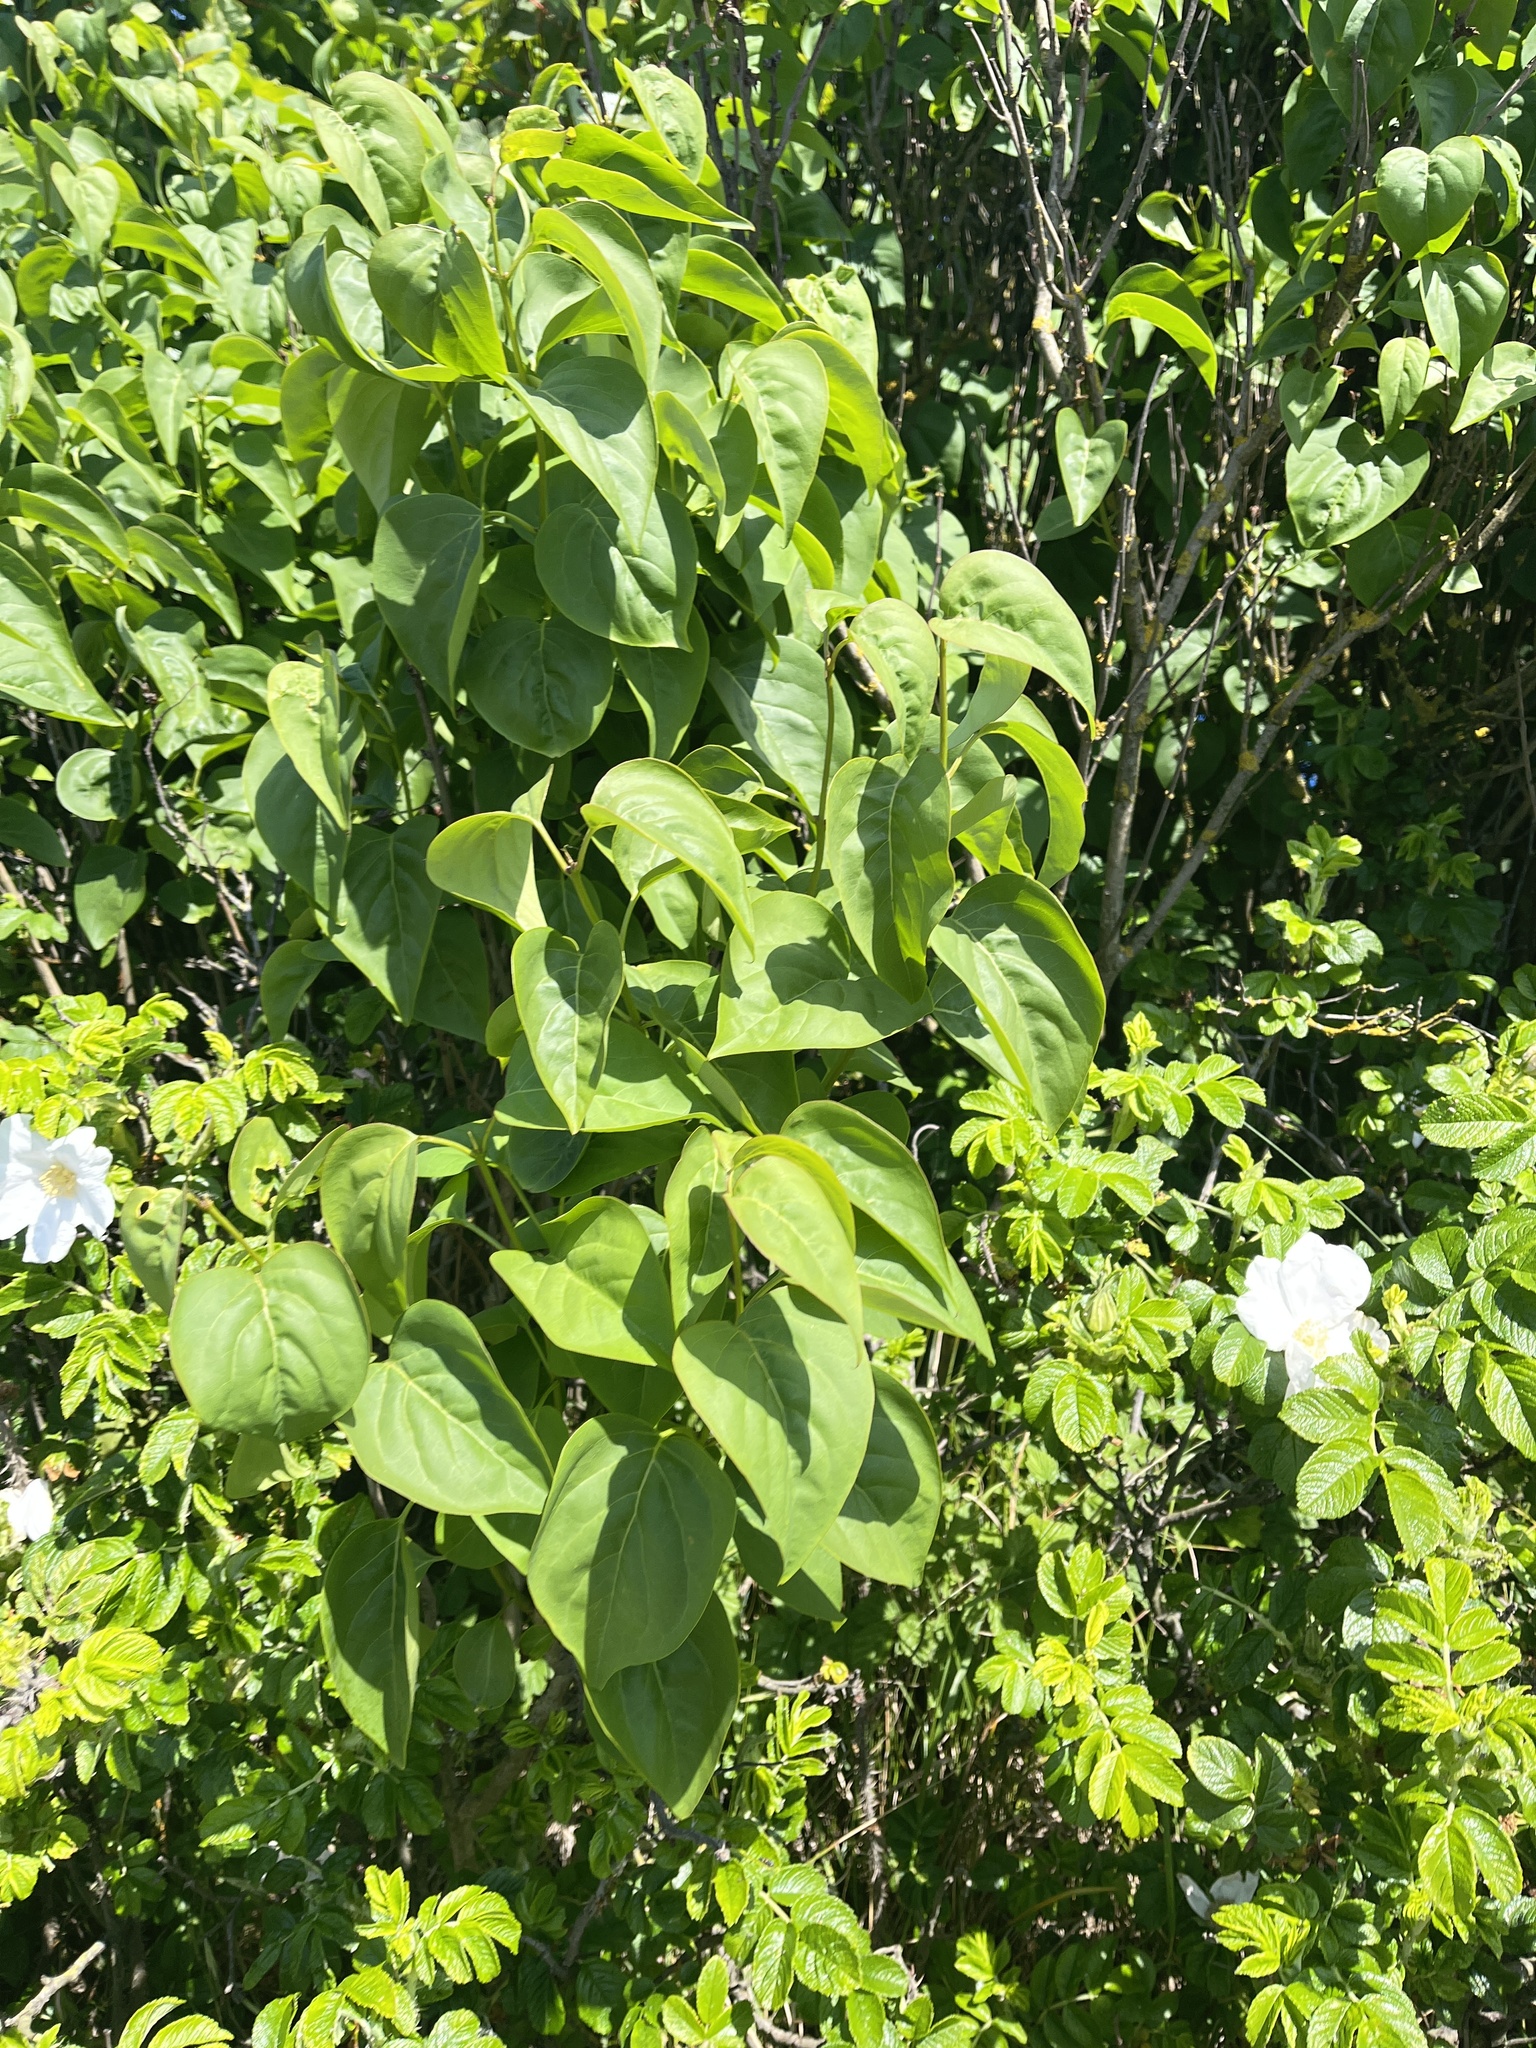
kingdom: Plantae
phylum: Tracheophyta
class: Magnoliopsida
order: Lamiales
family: Oleaceae
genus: Syringa
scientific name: Syringa vulgaris
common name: Common lilac
